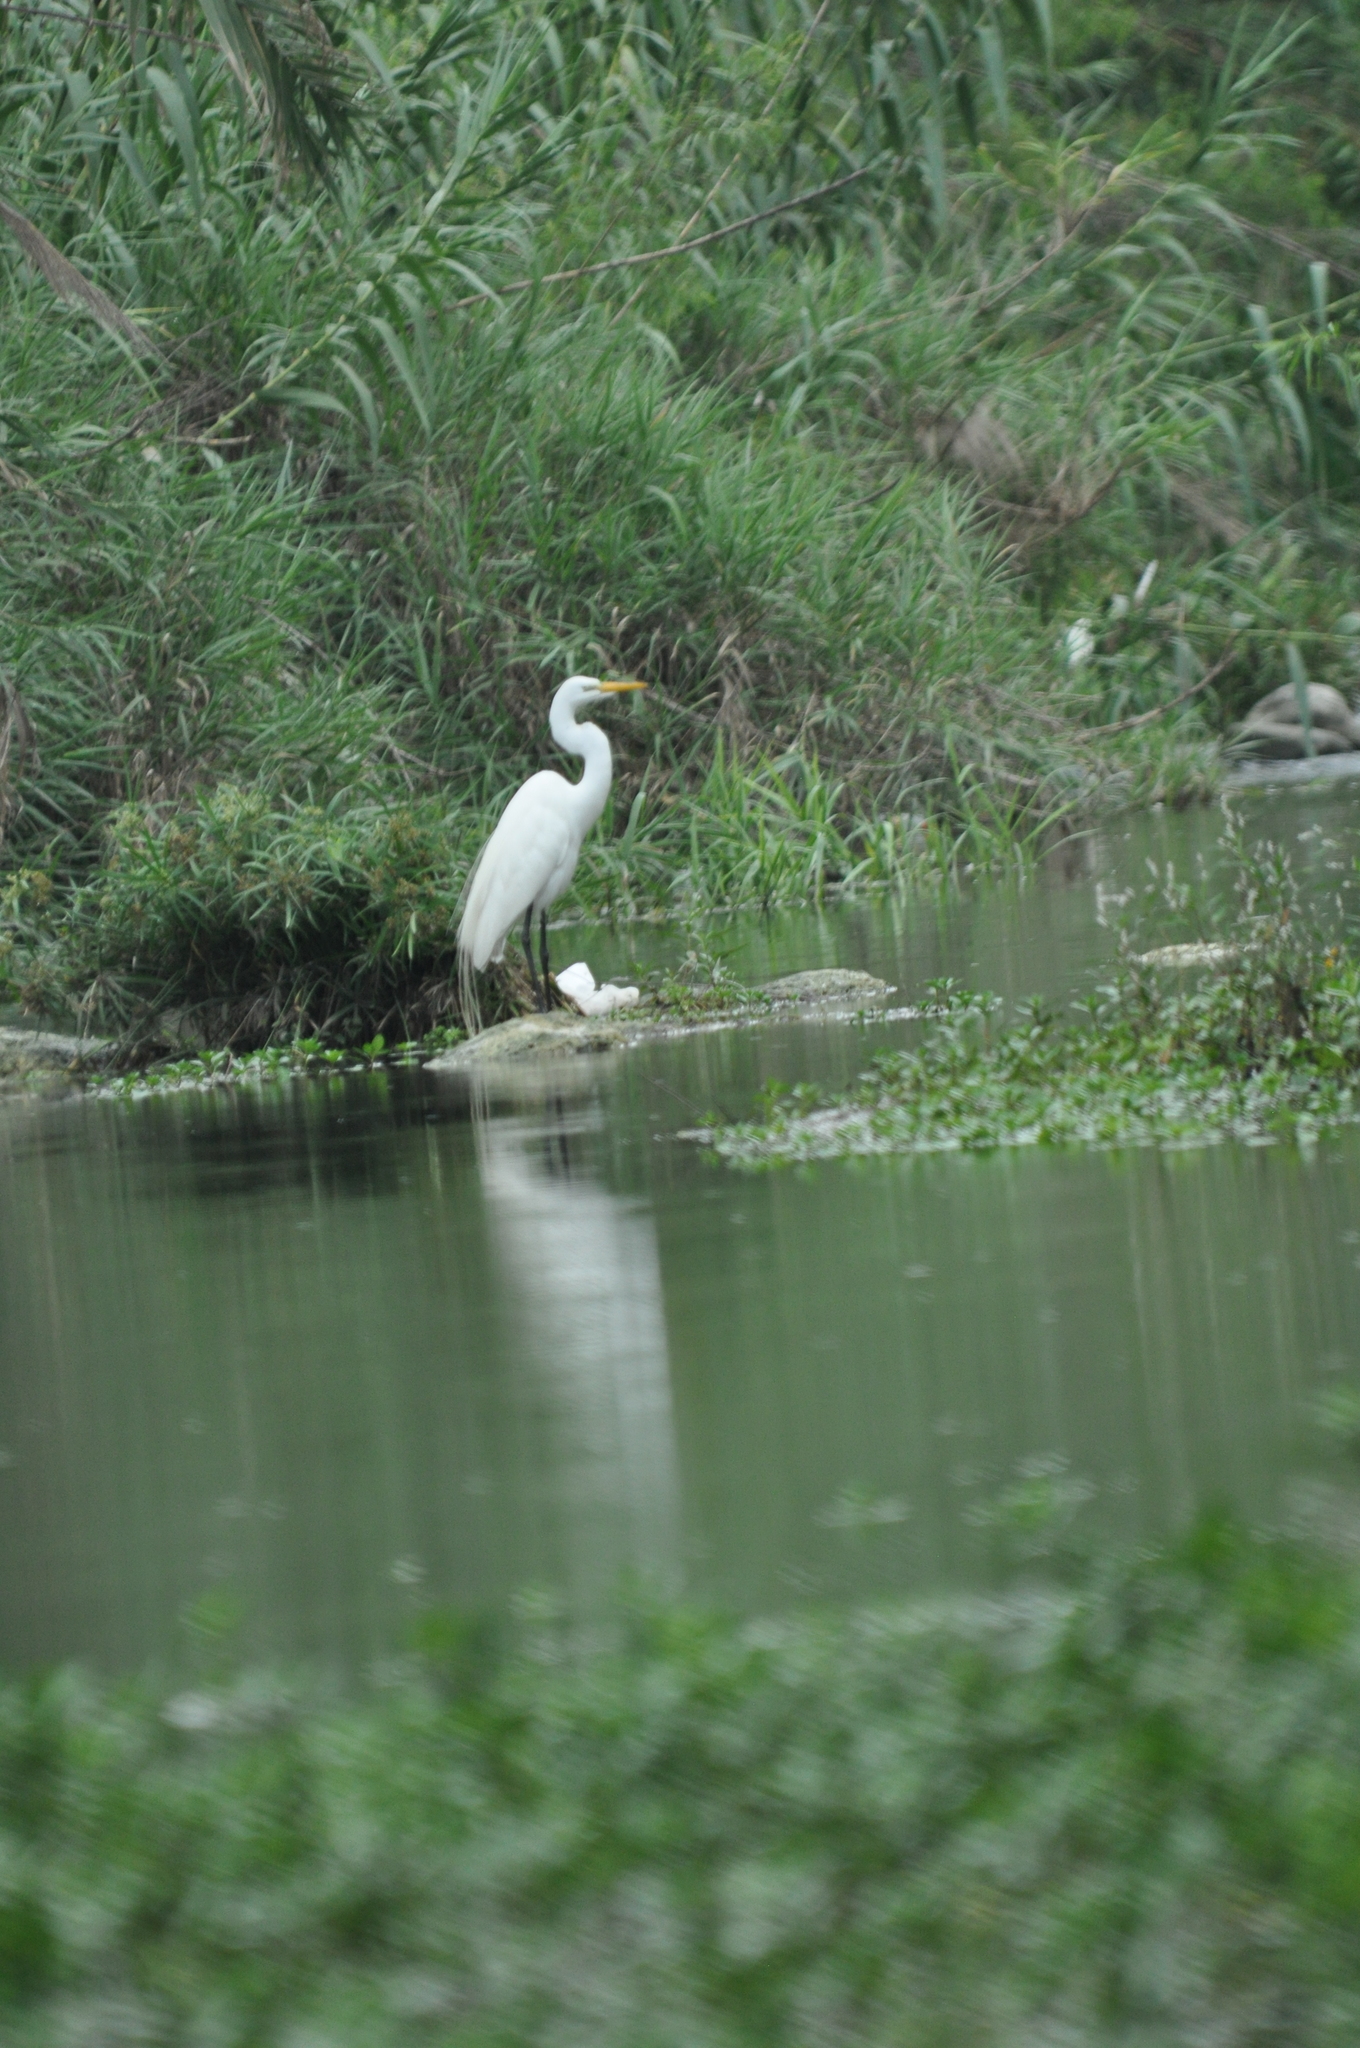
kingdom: Animalia
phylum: Chordata
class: Aves
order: Pelecaniformes
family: Ardeidae
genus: Ardea
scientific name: Ardea alba
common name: Great egret
